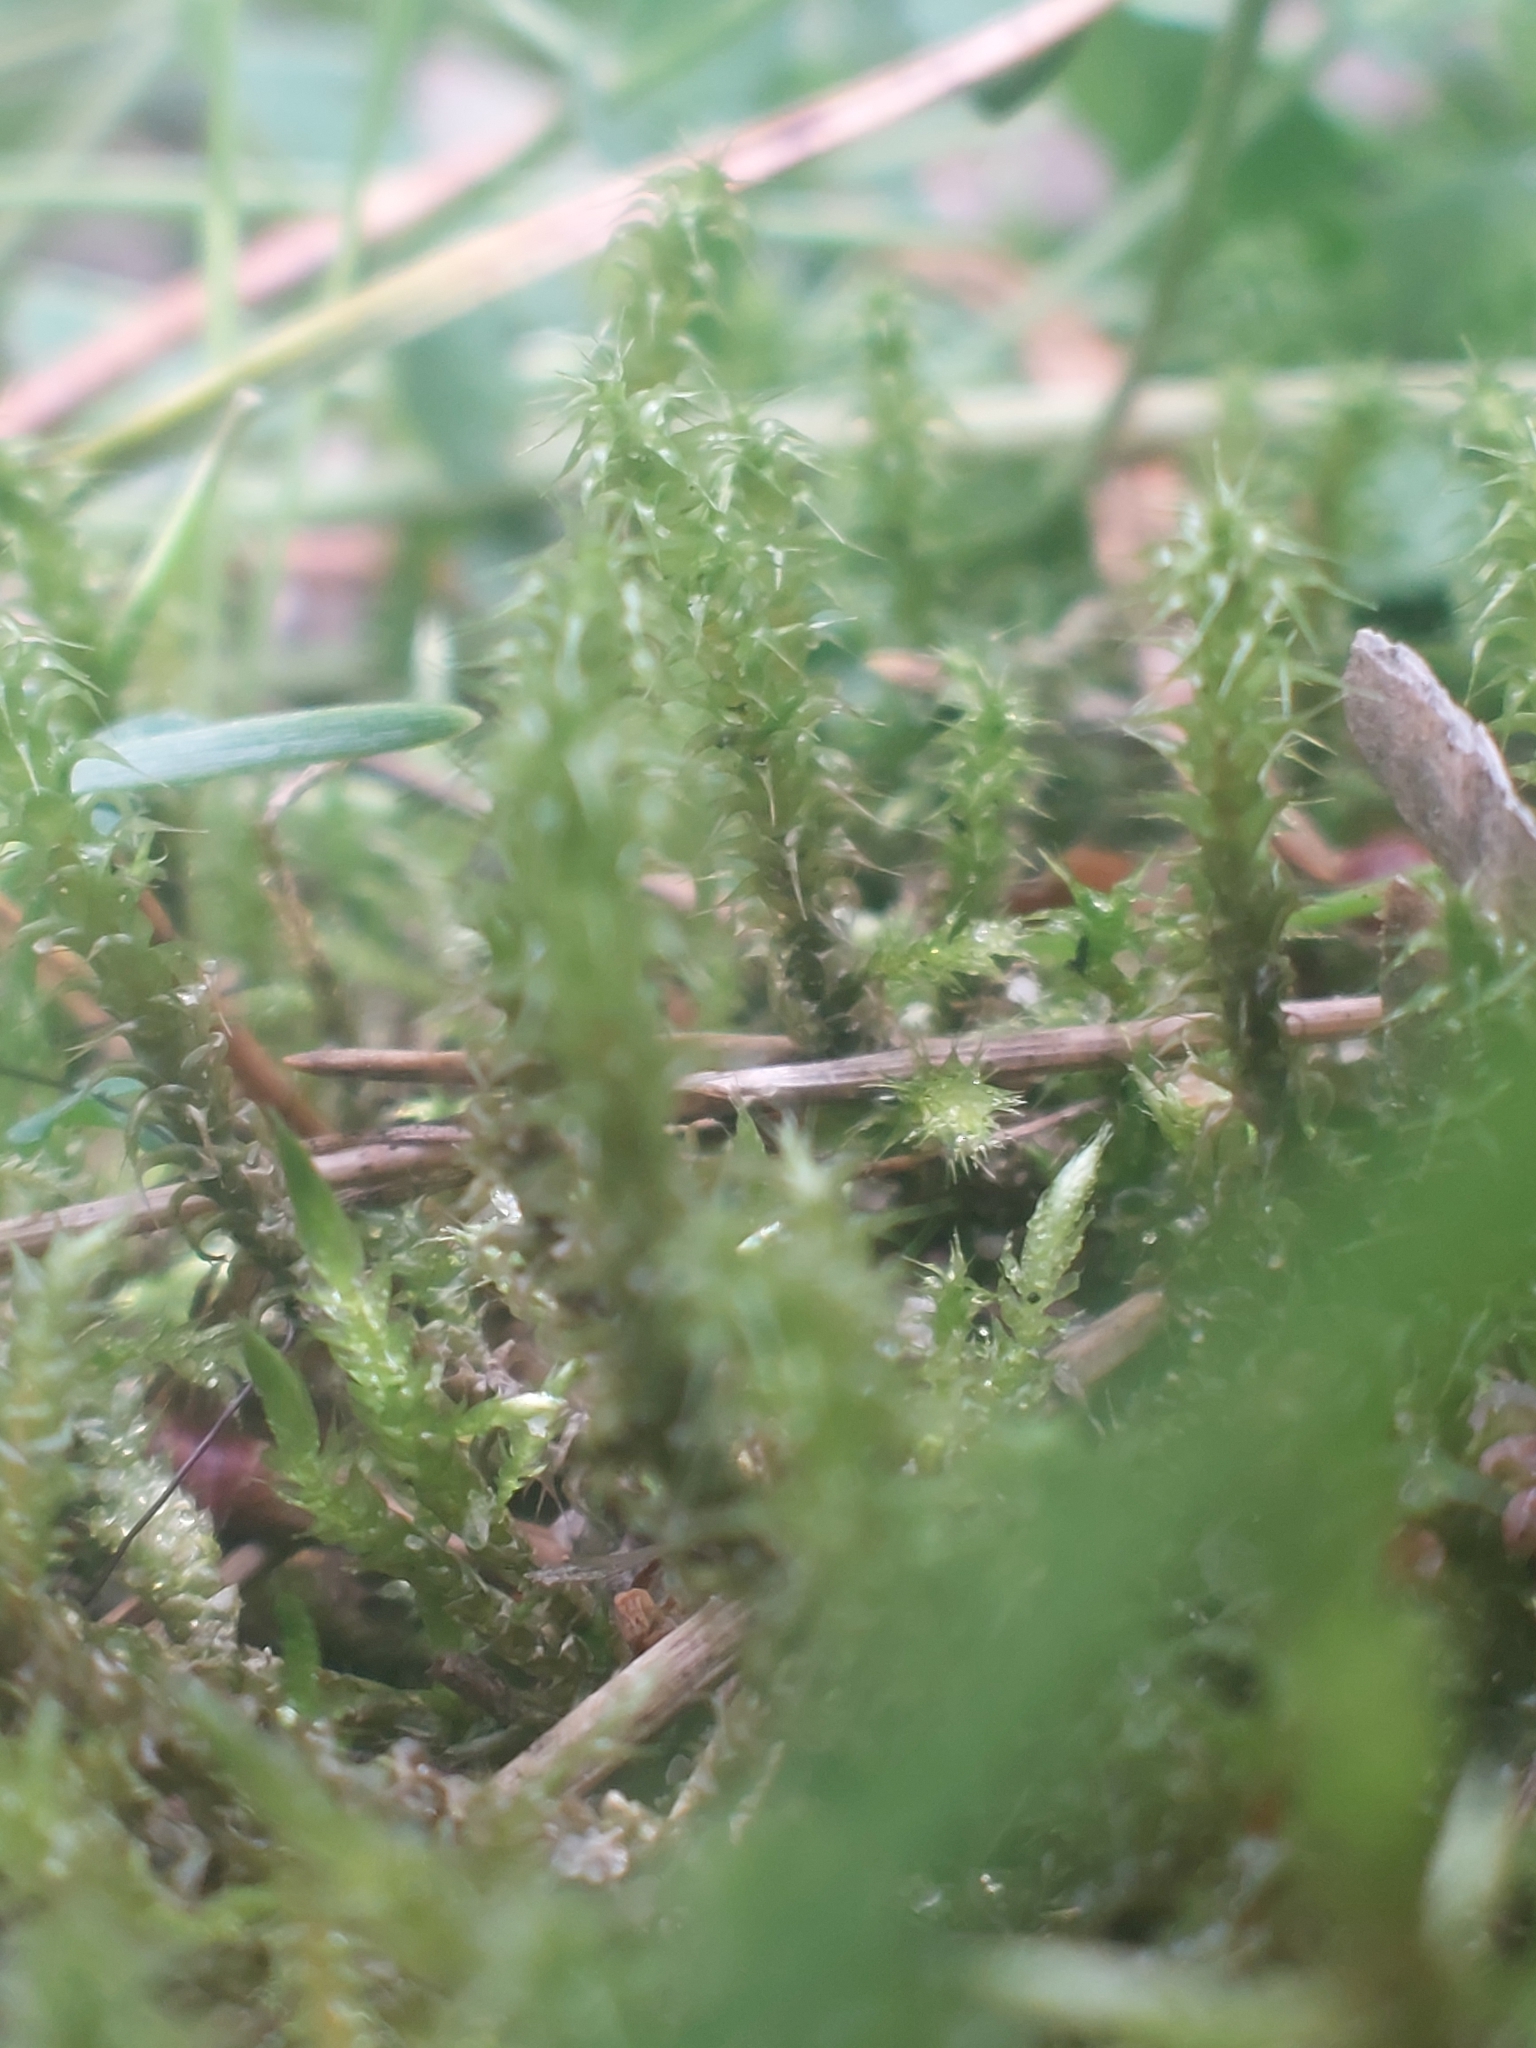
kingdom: Plantae
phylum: Bryophyta
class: Bryopsida
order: Hypnales
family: Hylocomiaceae
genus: Rhytidiadelphus
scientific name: Rhytidiadelphus squarrosus
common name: Springy turf-moss
